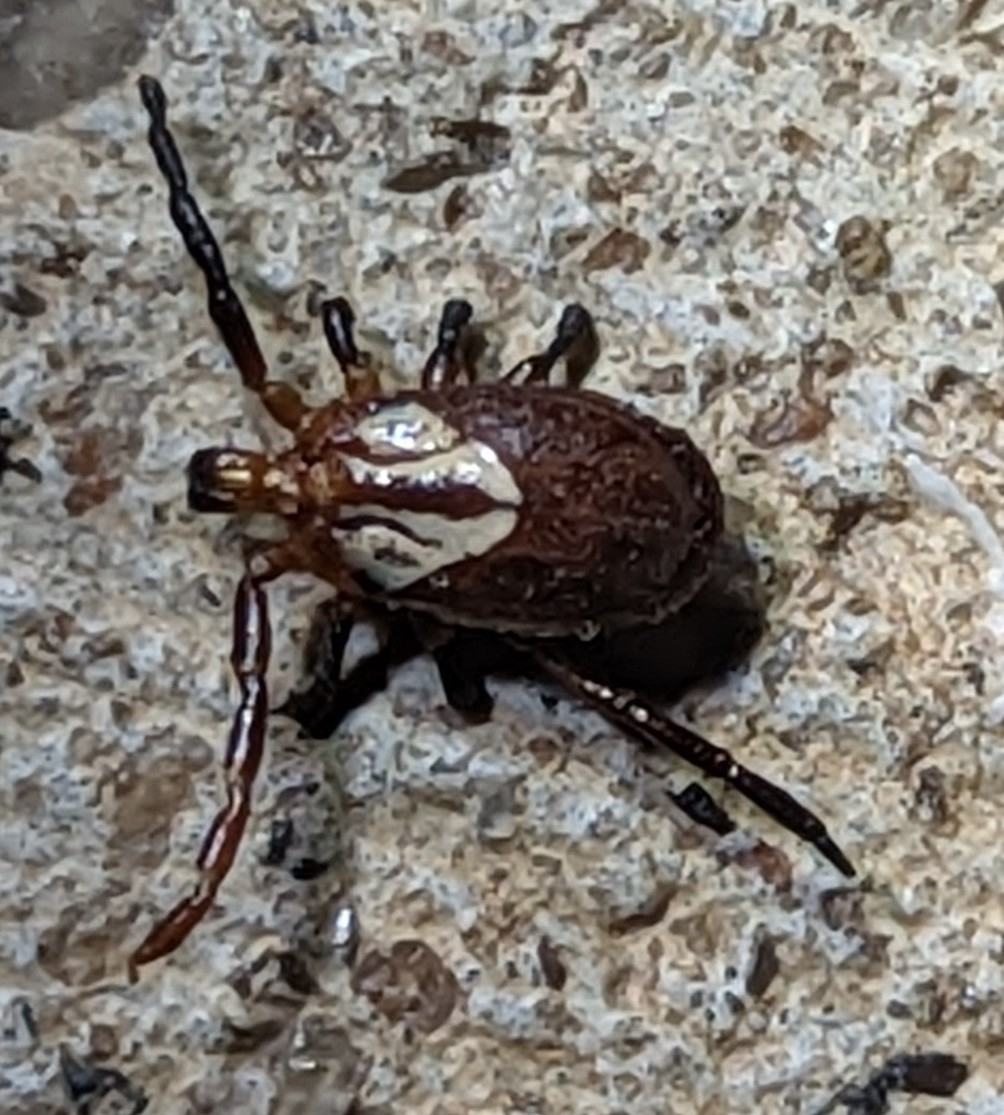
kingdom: Animalia
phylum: Arthropoda
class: Arachnida
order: Ixodida
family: Ixodidae
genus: Amblyomma
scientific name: Amblyomma maculatum
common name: Gulf coast tick
